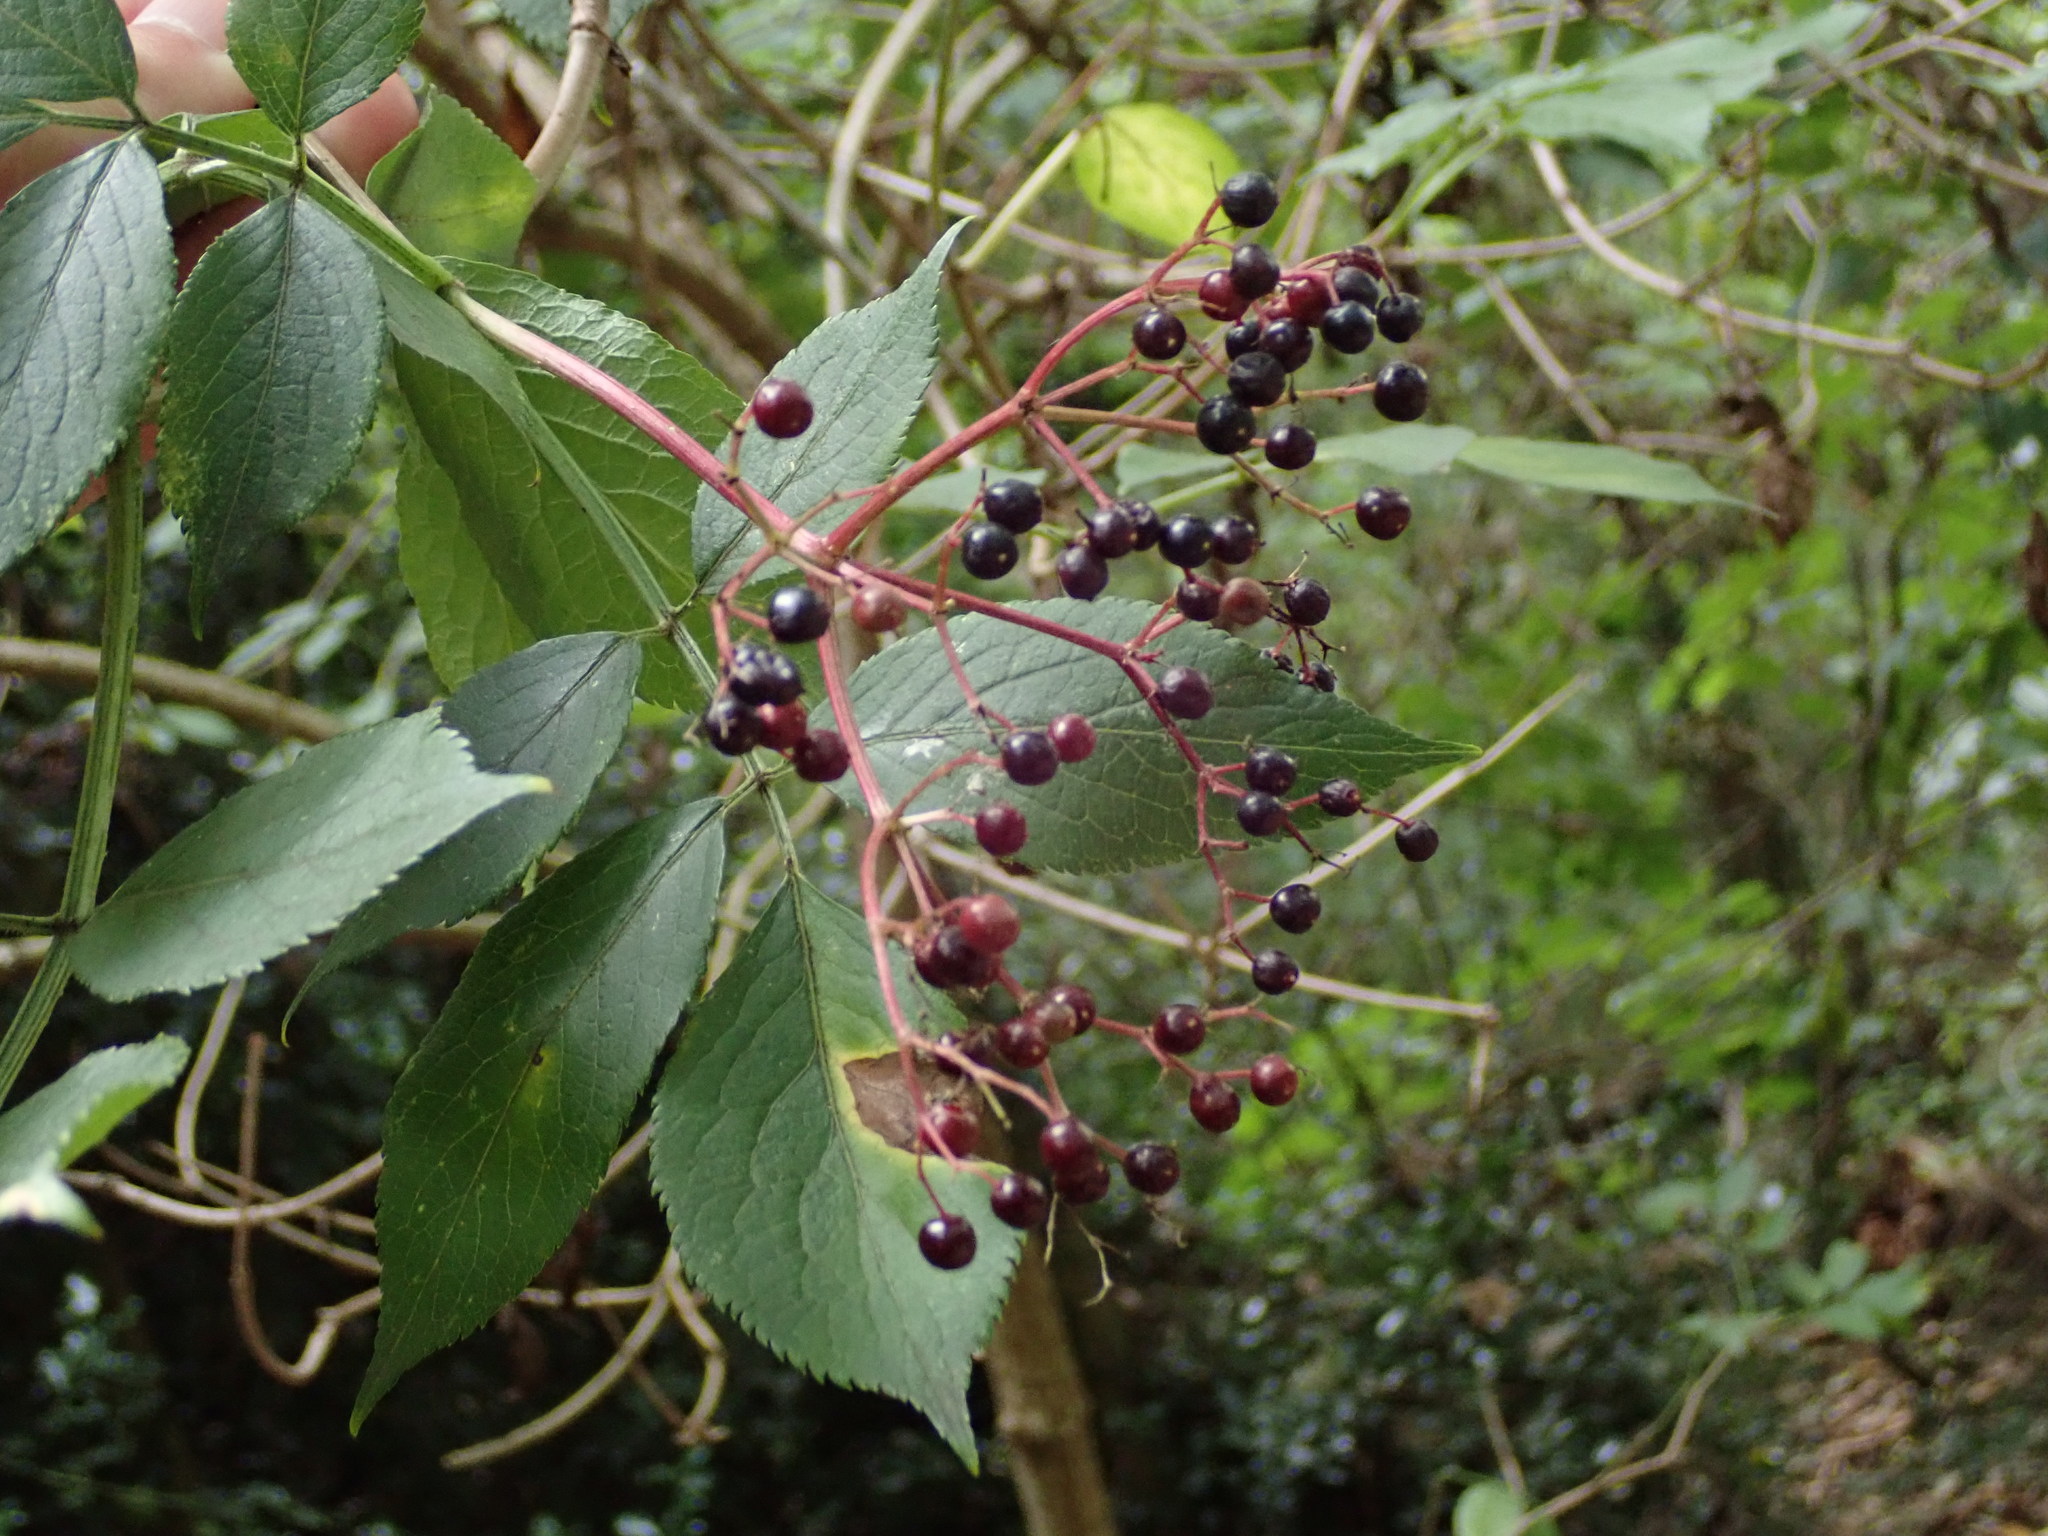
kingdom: Plantae
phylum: Tracheophyta
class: Magnoliopsida
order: Dipsacales
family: Viburnaceae
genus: Sambucus
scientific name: Sambucus nigra
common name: Elder
